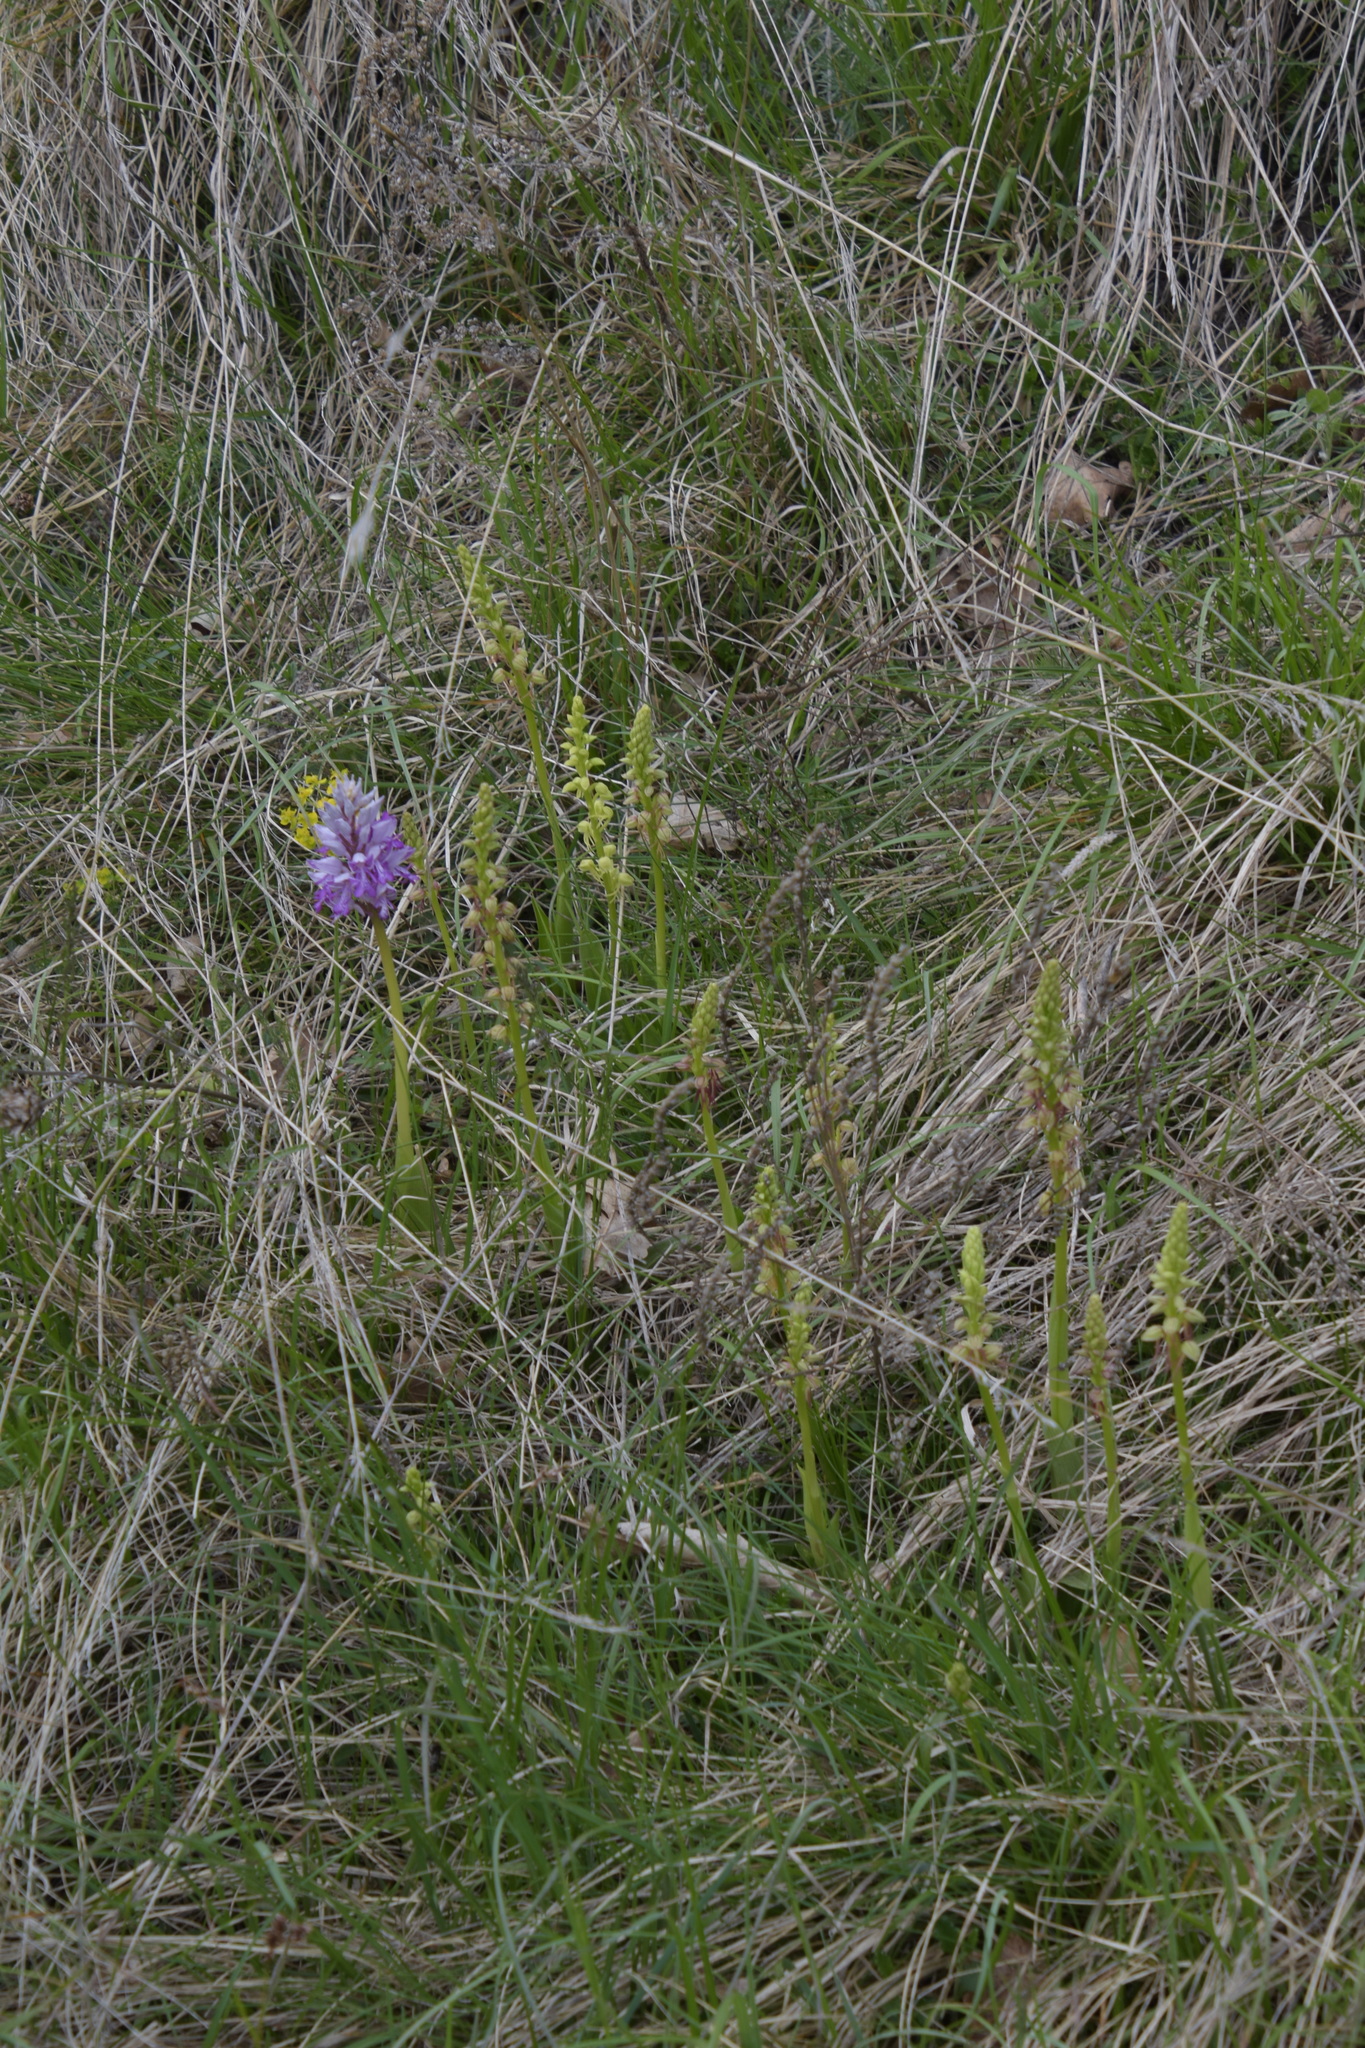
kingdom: Plantae
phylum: Tracheophyta
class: Liliopsida
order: Asparagales
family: Orchidaceae
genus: Orchis
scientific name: Orchis anthropophora
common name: Man orchid
